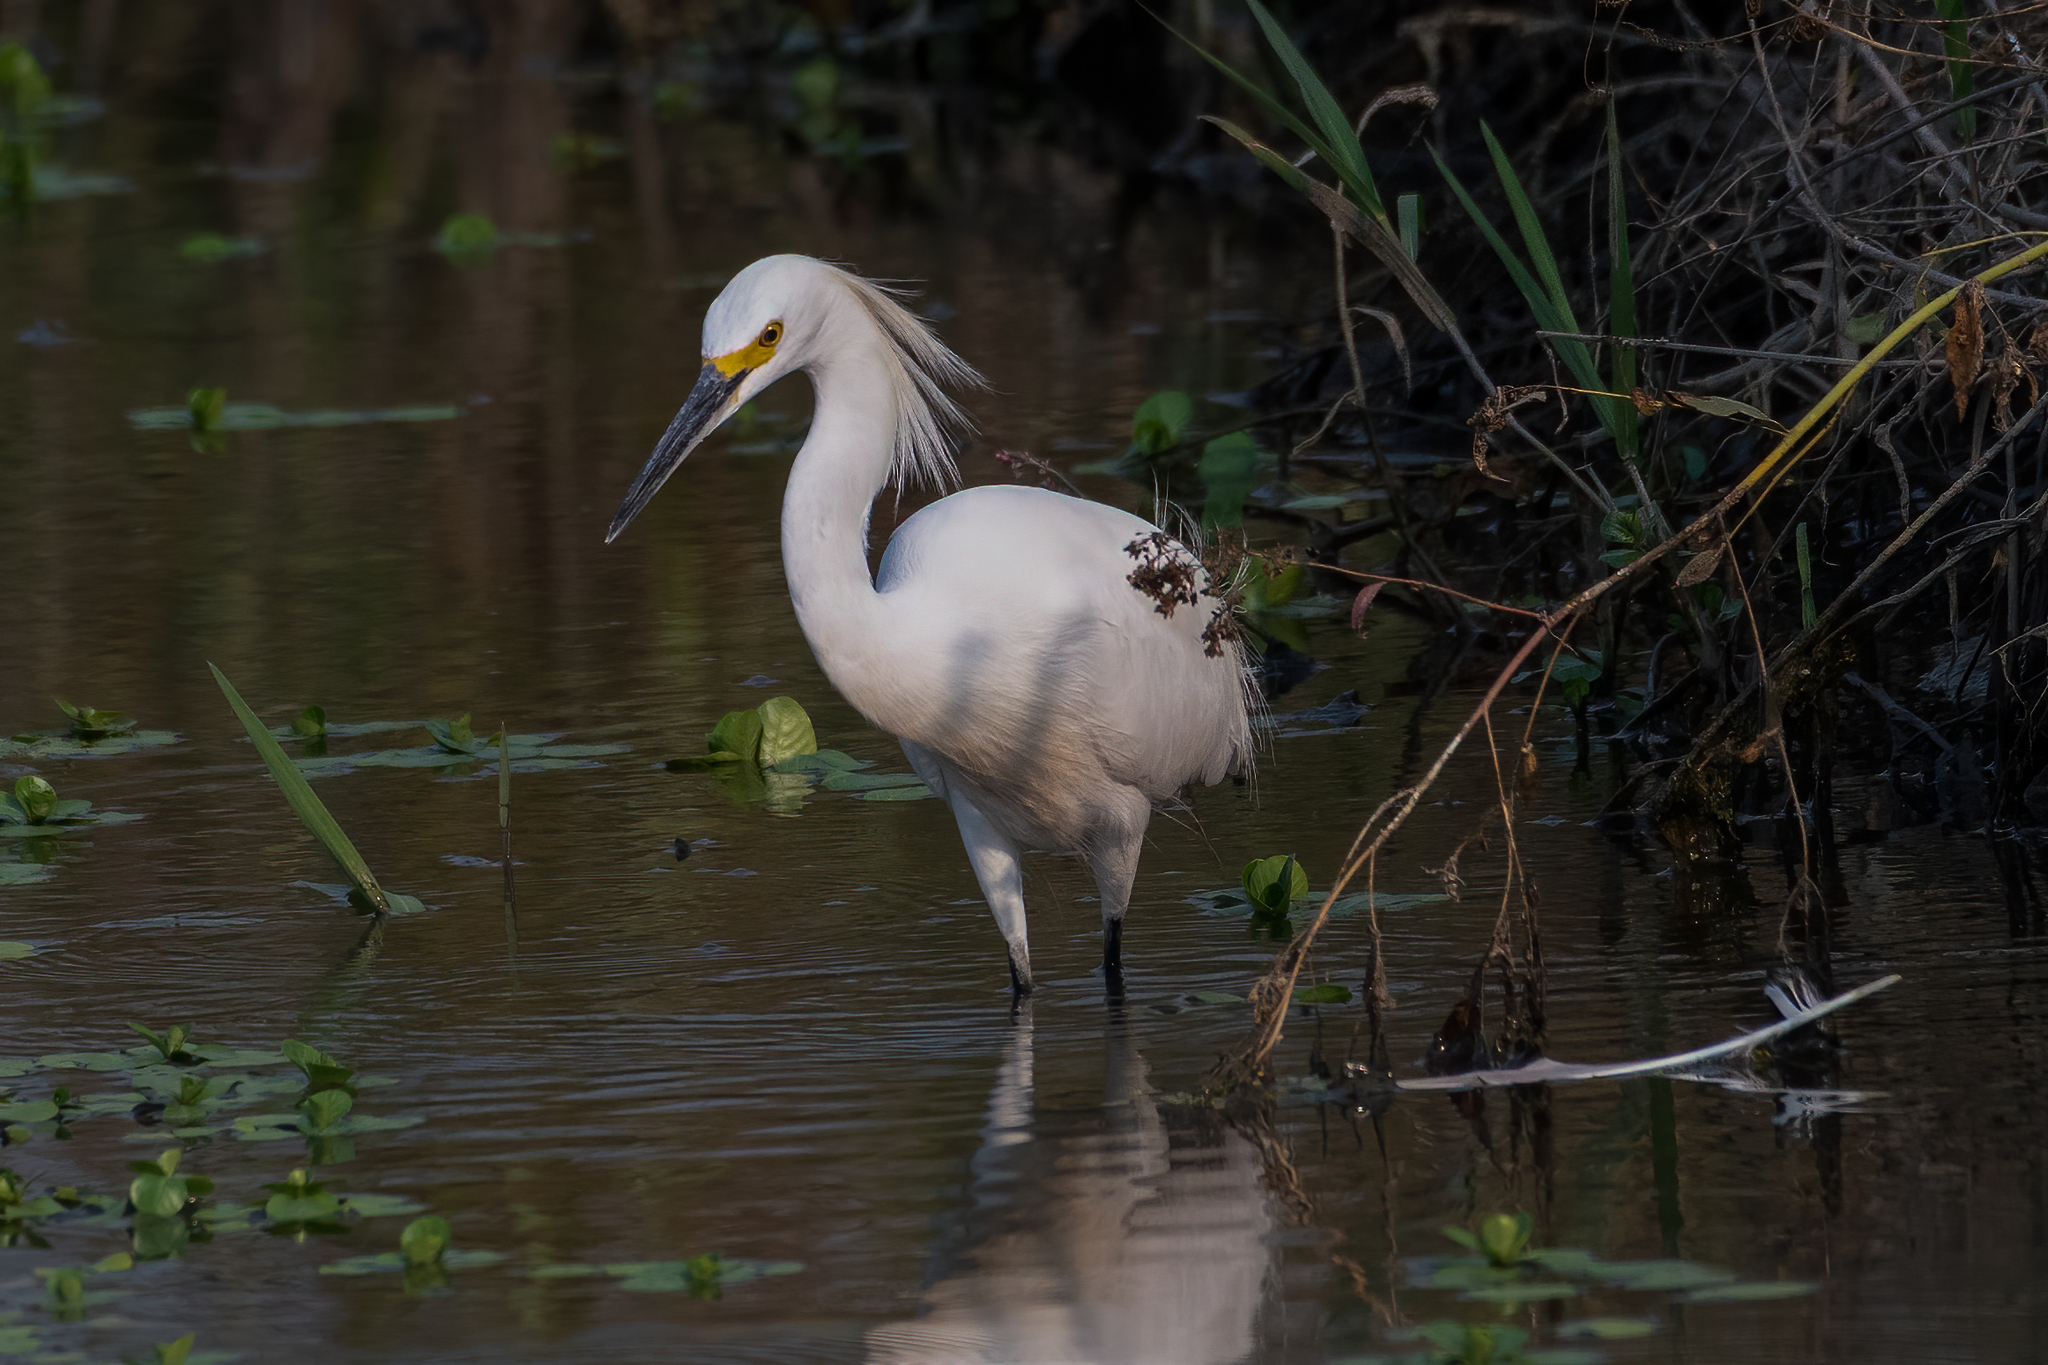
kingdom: Animalia
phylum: Chordata
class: Aves
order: Pelecaniformes
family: Ardeidae
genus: Egretta
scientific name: Egretta thula
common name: Snowy egret
